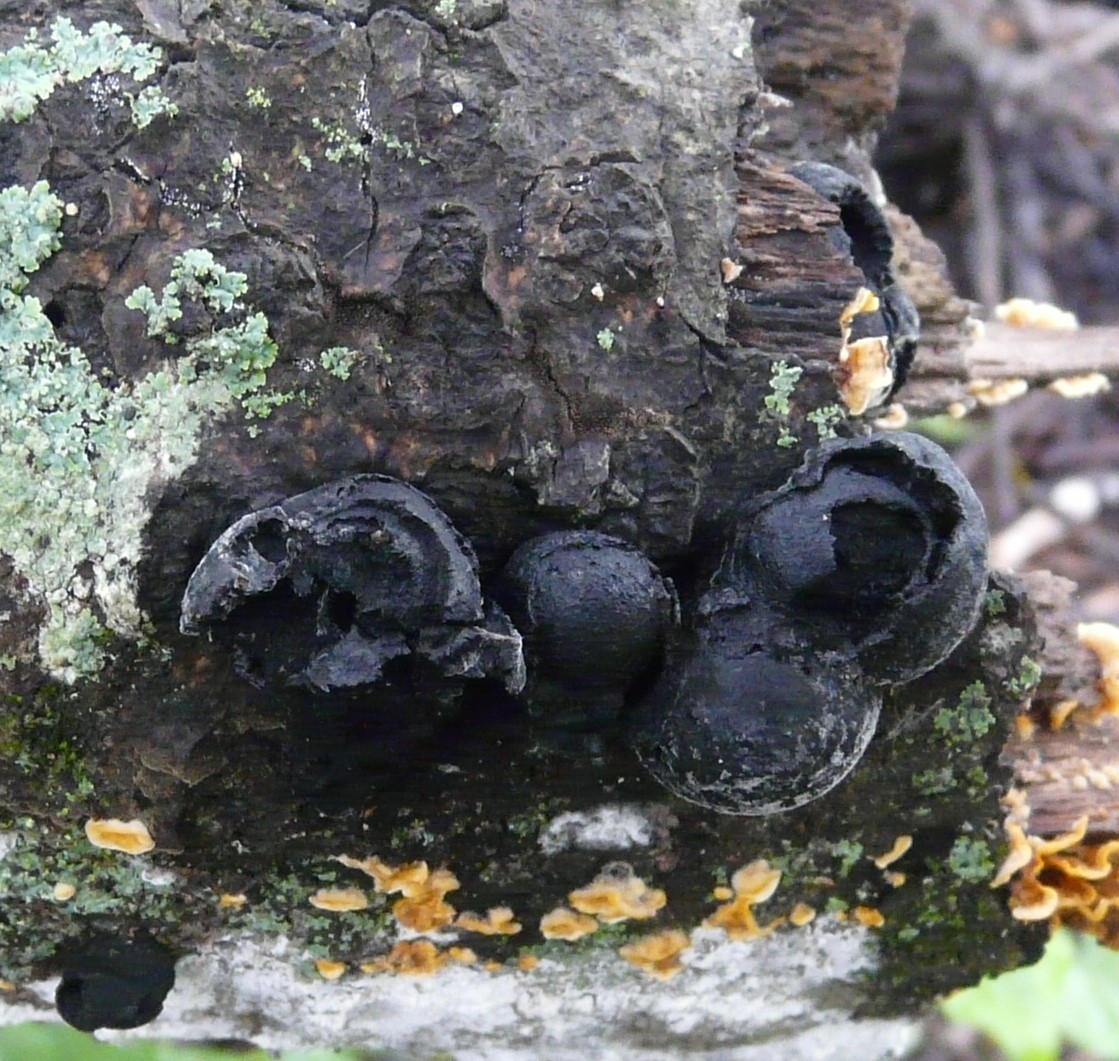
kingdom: Fungi
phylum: Ascomycota
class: Sordariomycetes
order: Xylariales
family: Hypoxylaceae
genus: Annulohypoxylon
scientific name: Annulohypoxylon thouarsianum
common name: Cramp balls
